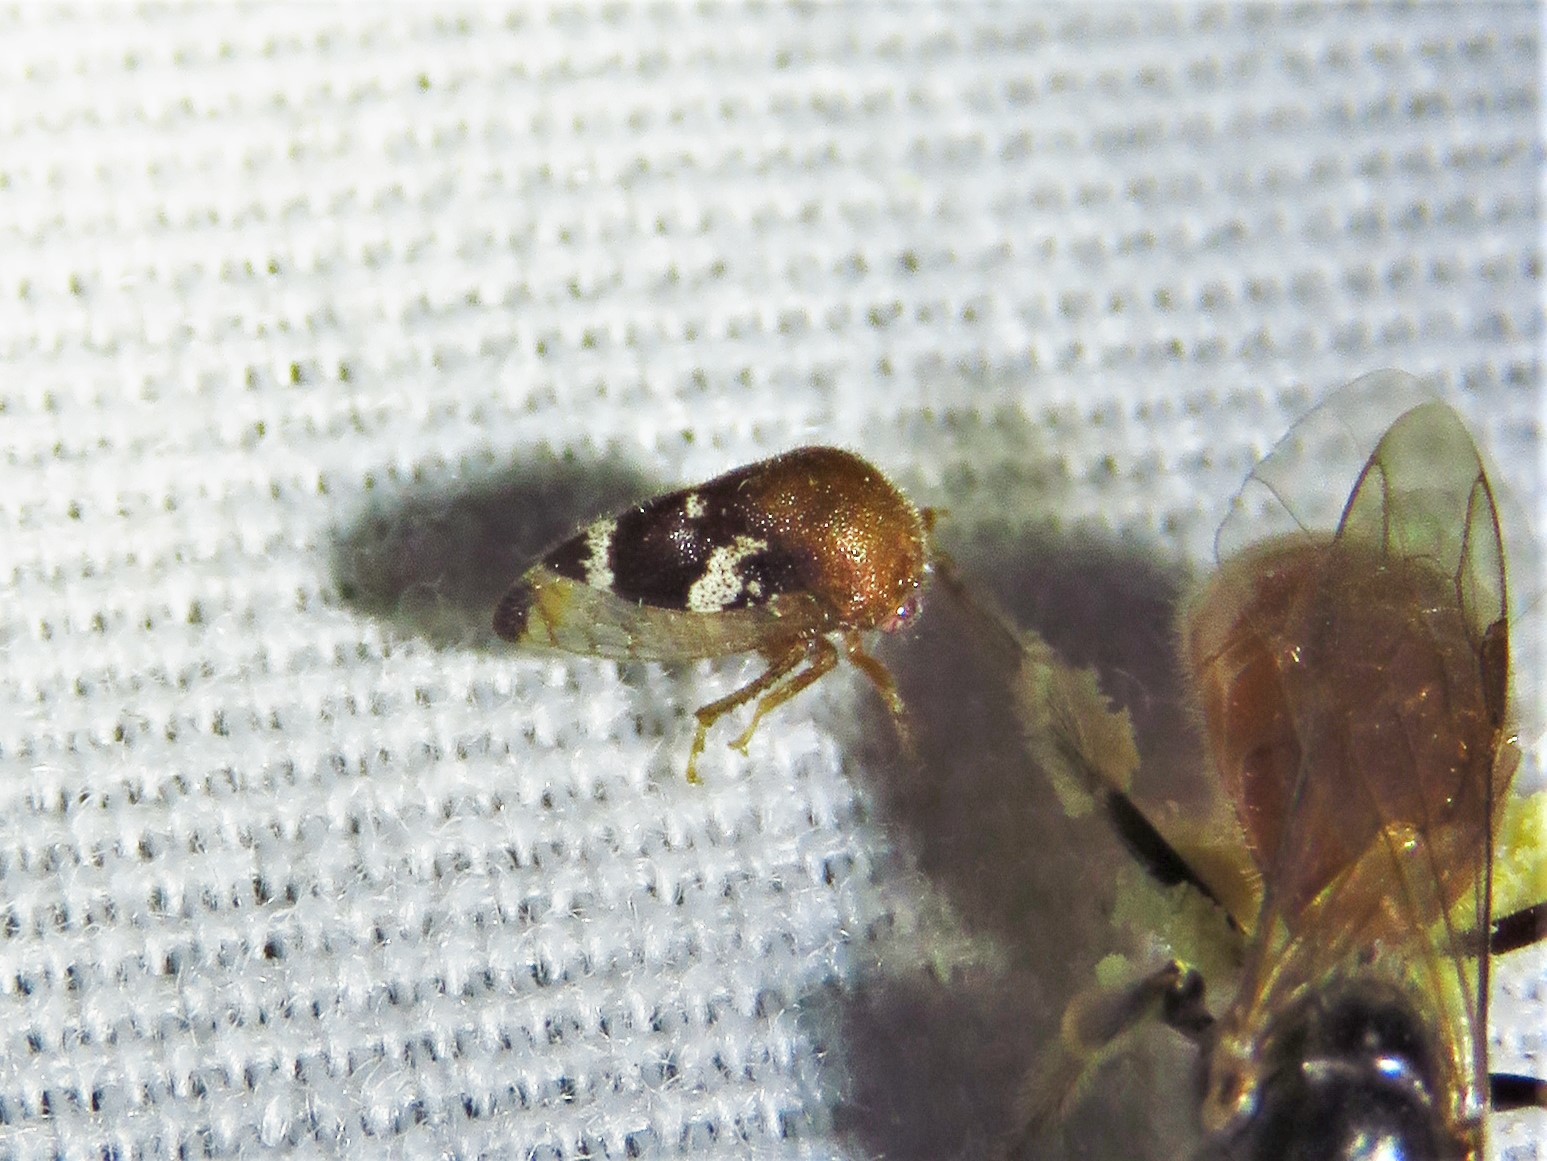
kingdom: Animalia
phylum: Arthropoda
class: Insecta
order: Hemiptera
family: Membracidae
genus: Vanduzea
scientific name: Vanduzea segmentata
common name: Membracid bug
